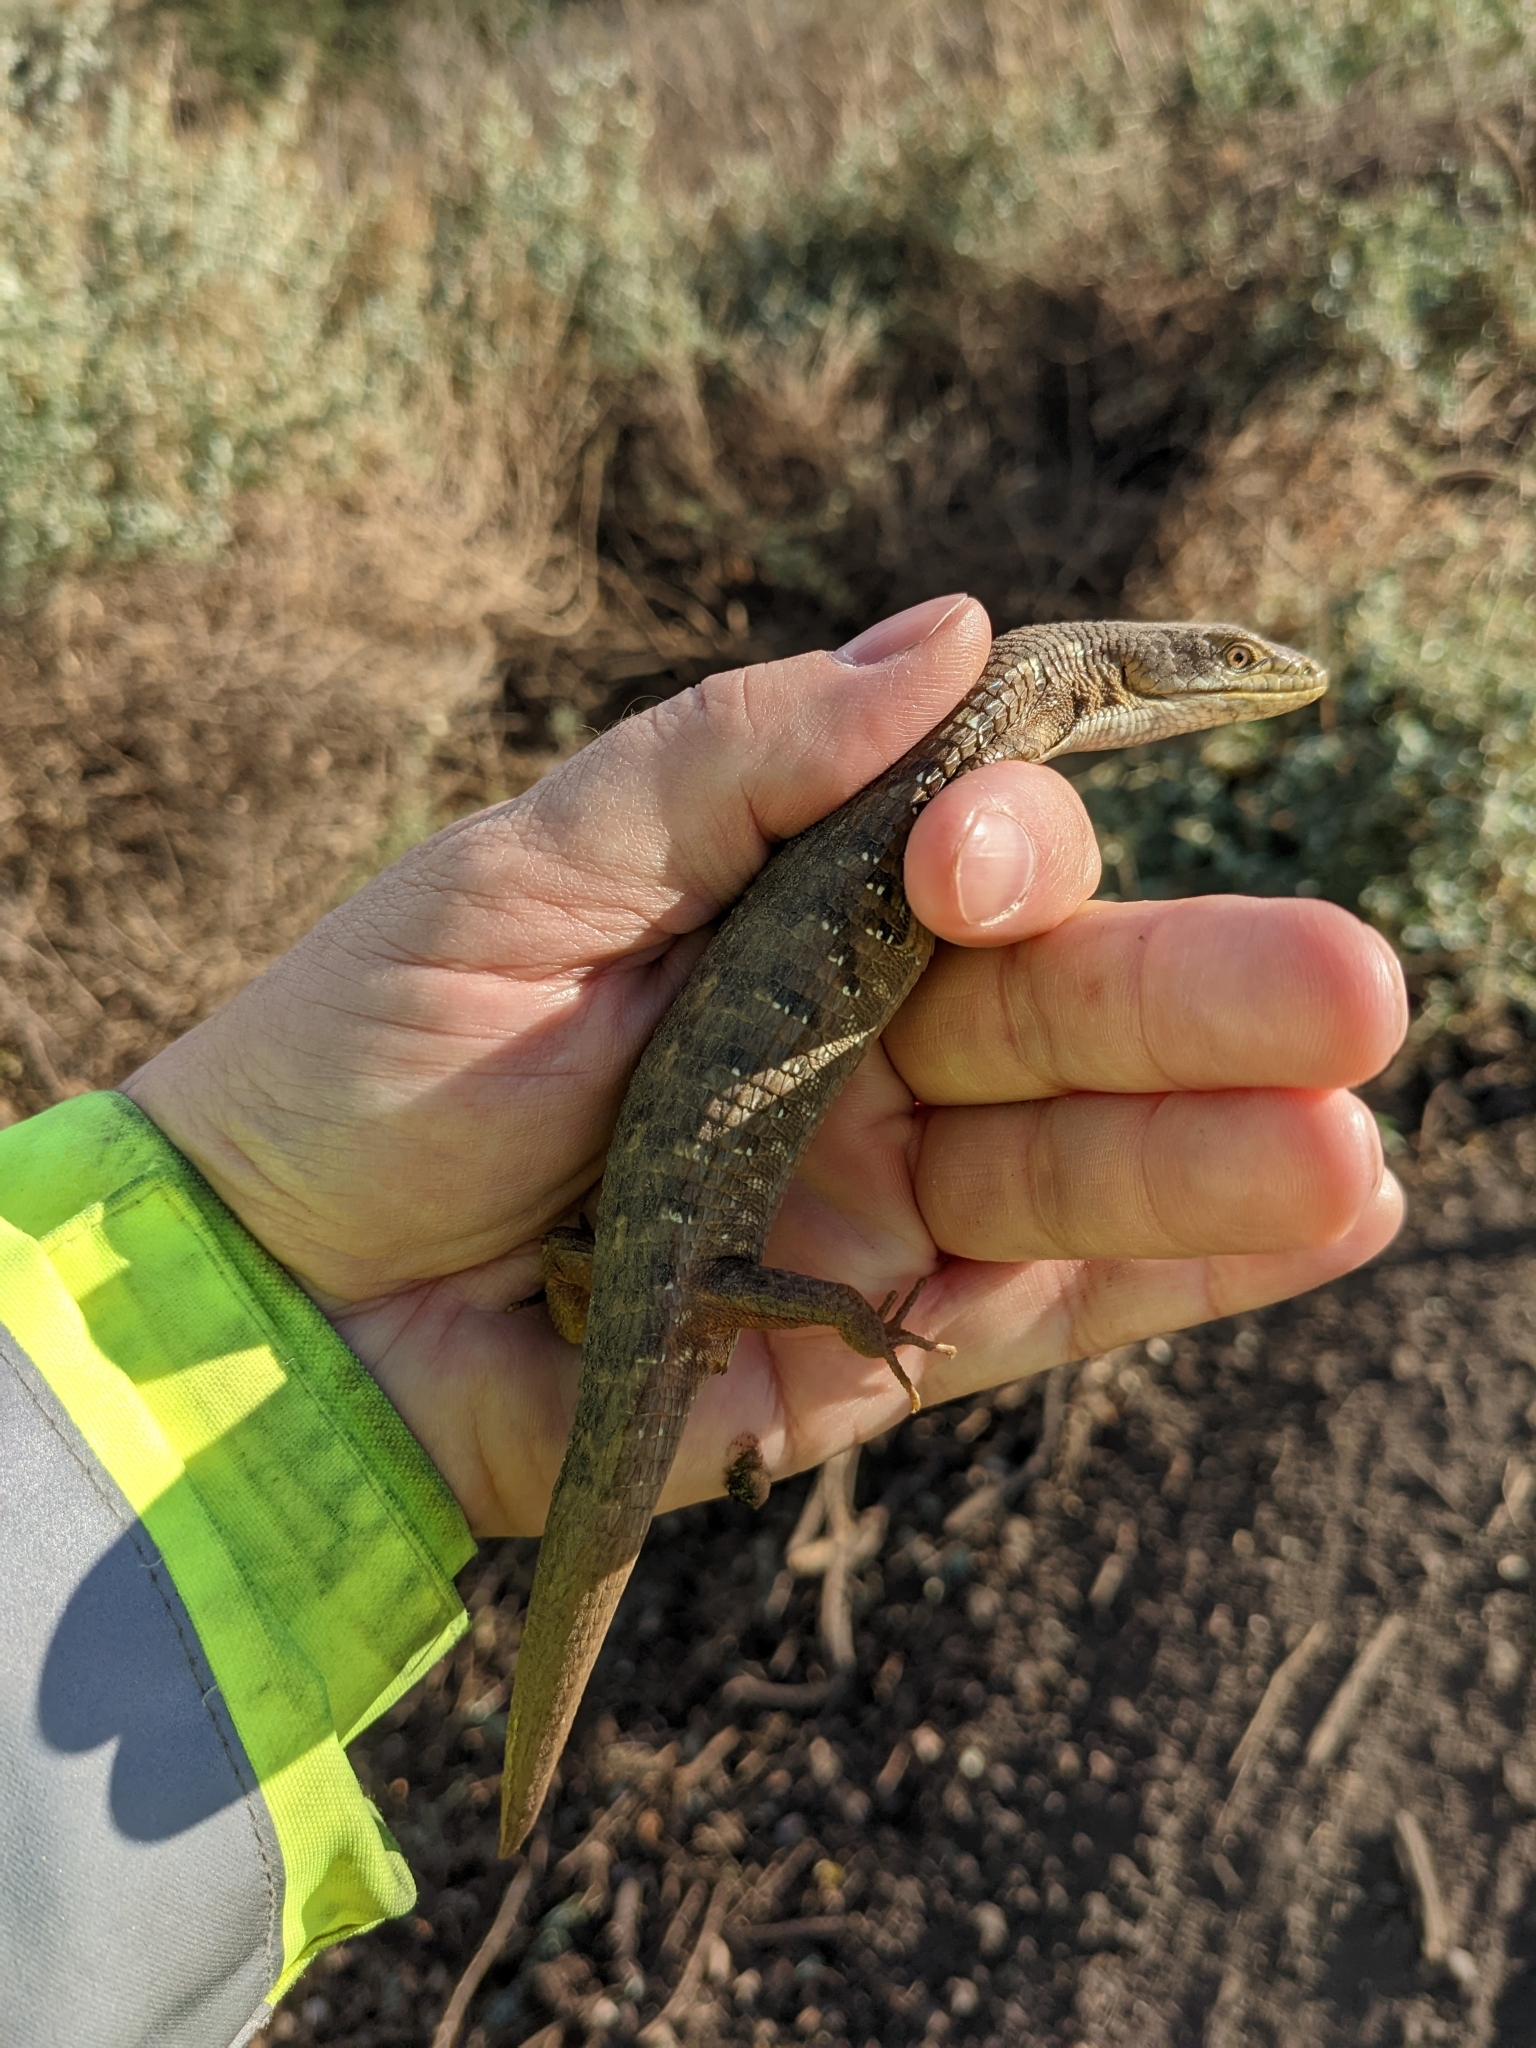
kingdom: Animalia
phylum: Chordata
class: Squamata
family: Anguidae
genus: Elgaria
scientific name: Elgaria multicarinata
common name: Southern alligator lizard
